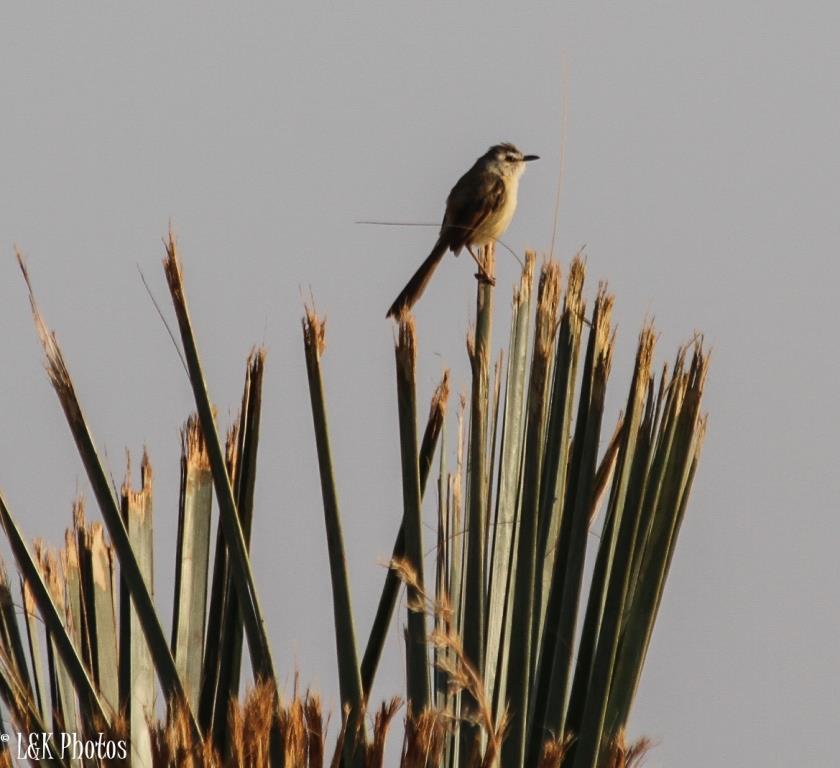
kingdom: Animalia
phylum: Chordata
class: Aves
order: Passeriformes
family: Cisticolidae
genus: Prinia
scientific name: Prinia subflava
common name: Tawny-flanked prinia
